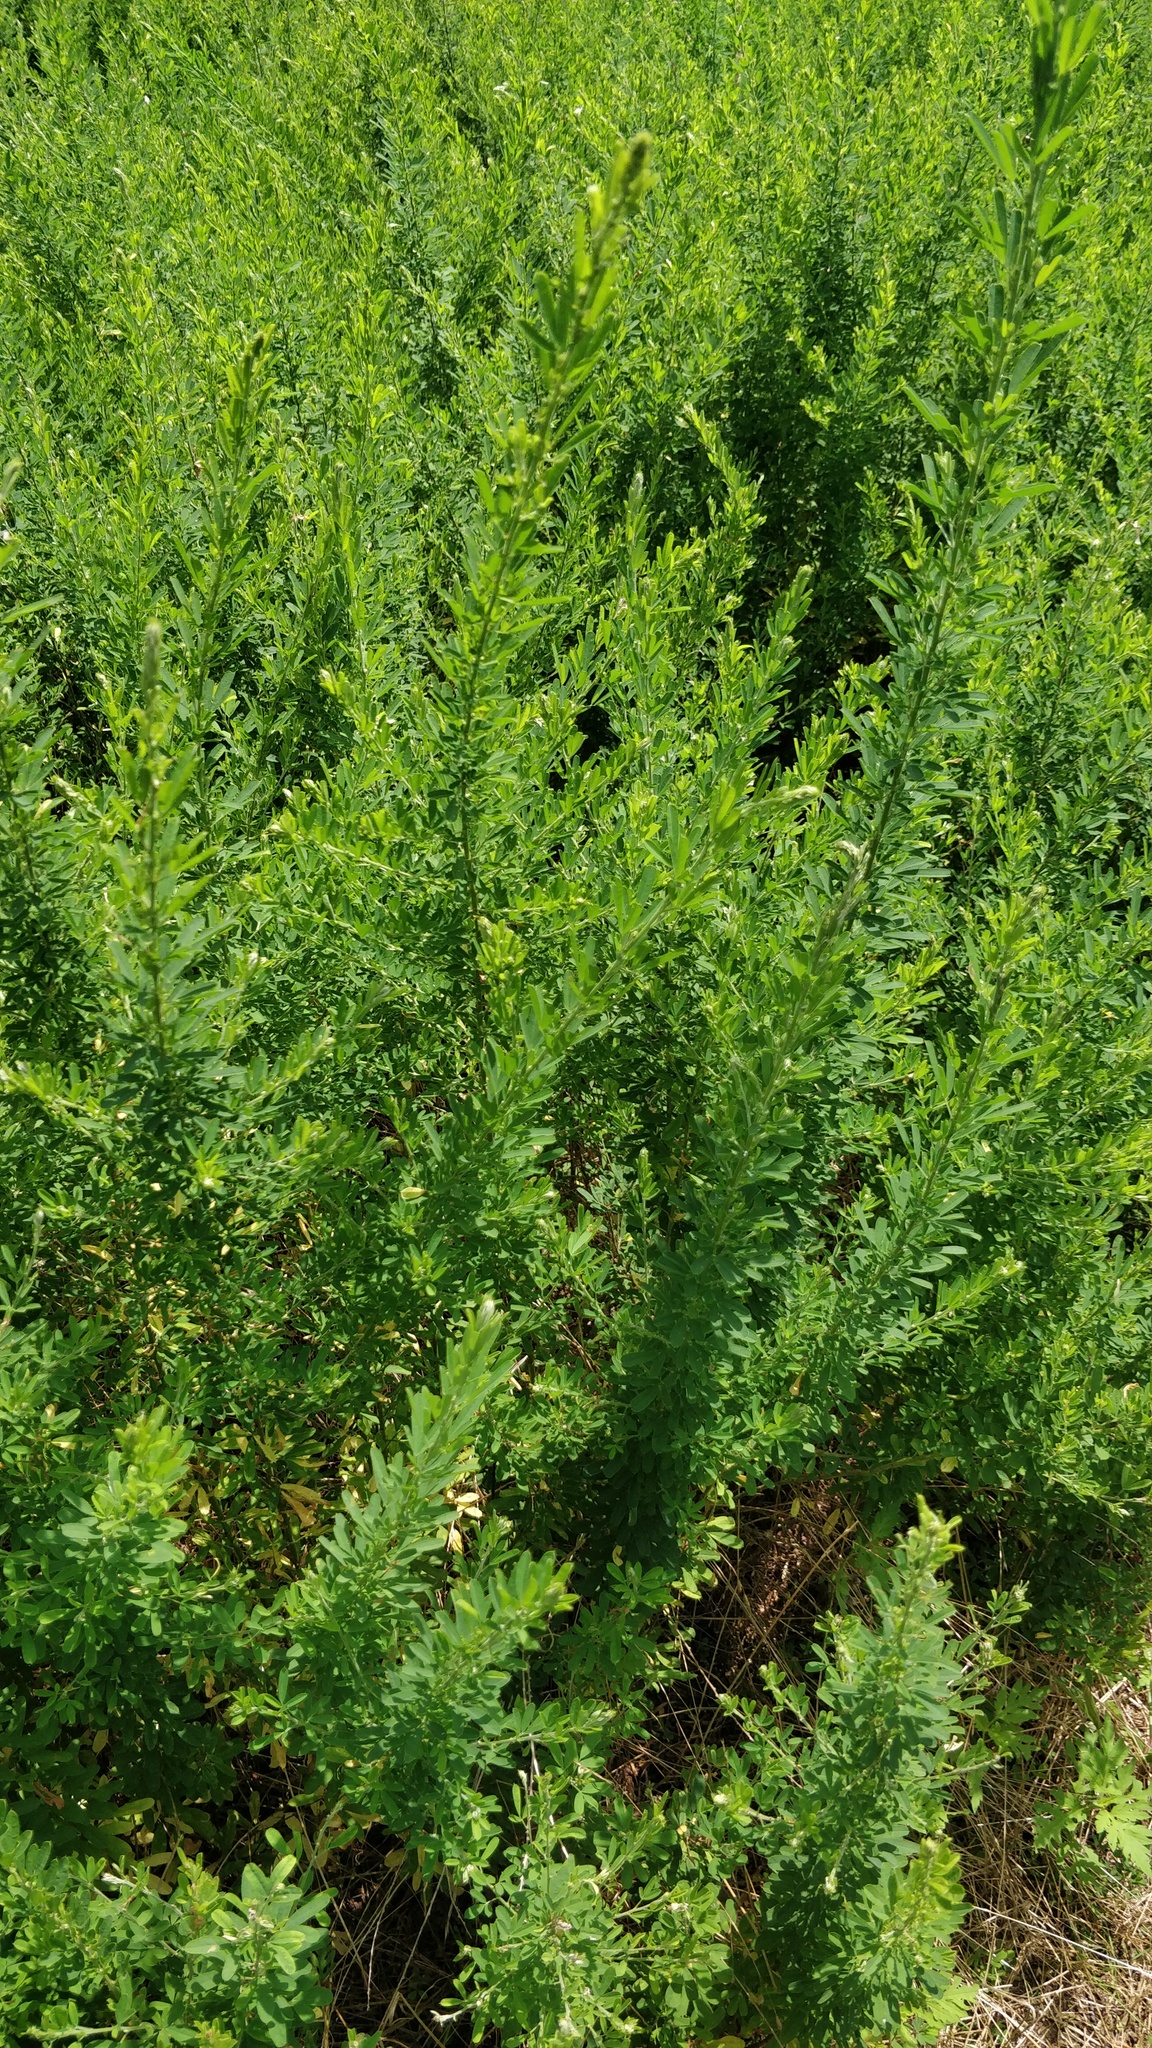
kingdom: Plantae
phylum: Tracheophyta
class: Magnoliopsida
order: Fabales
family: Fabaceae
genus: Lespedeza
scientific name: Lespedeza cuneata
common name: Chinese bush-clover
